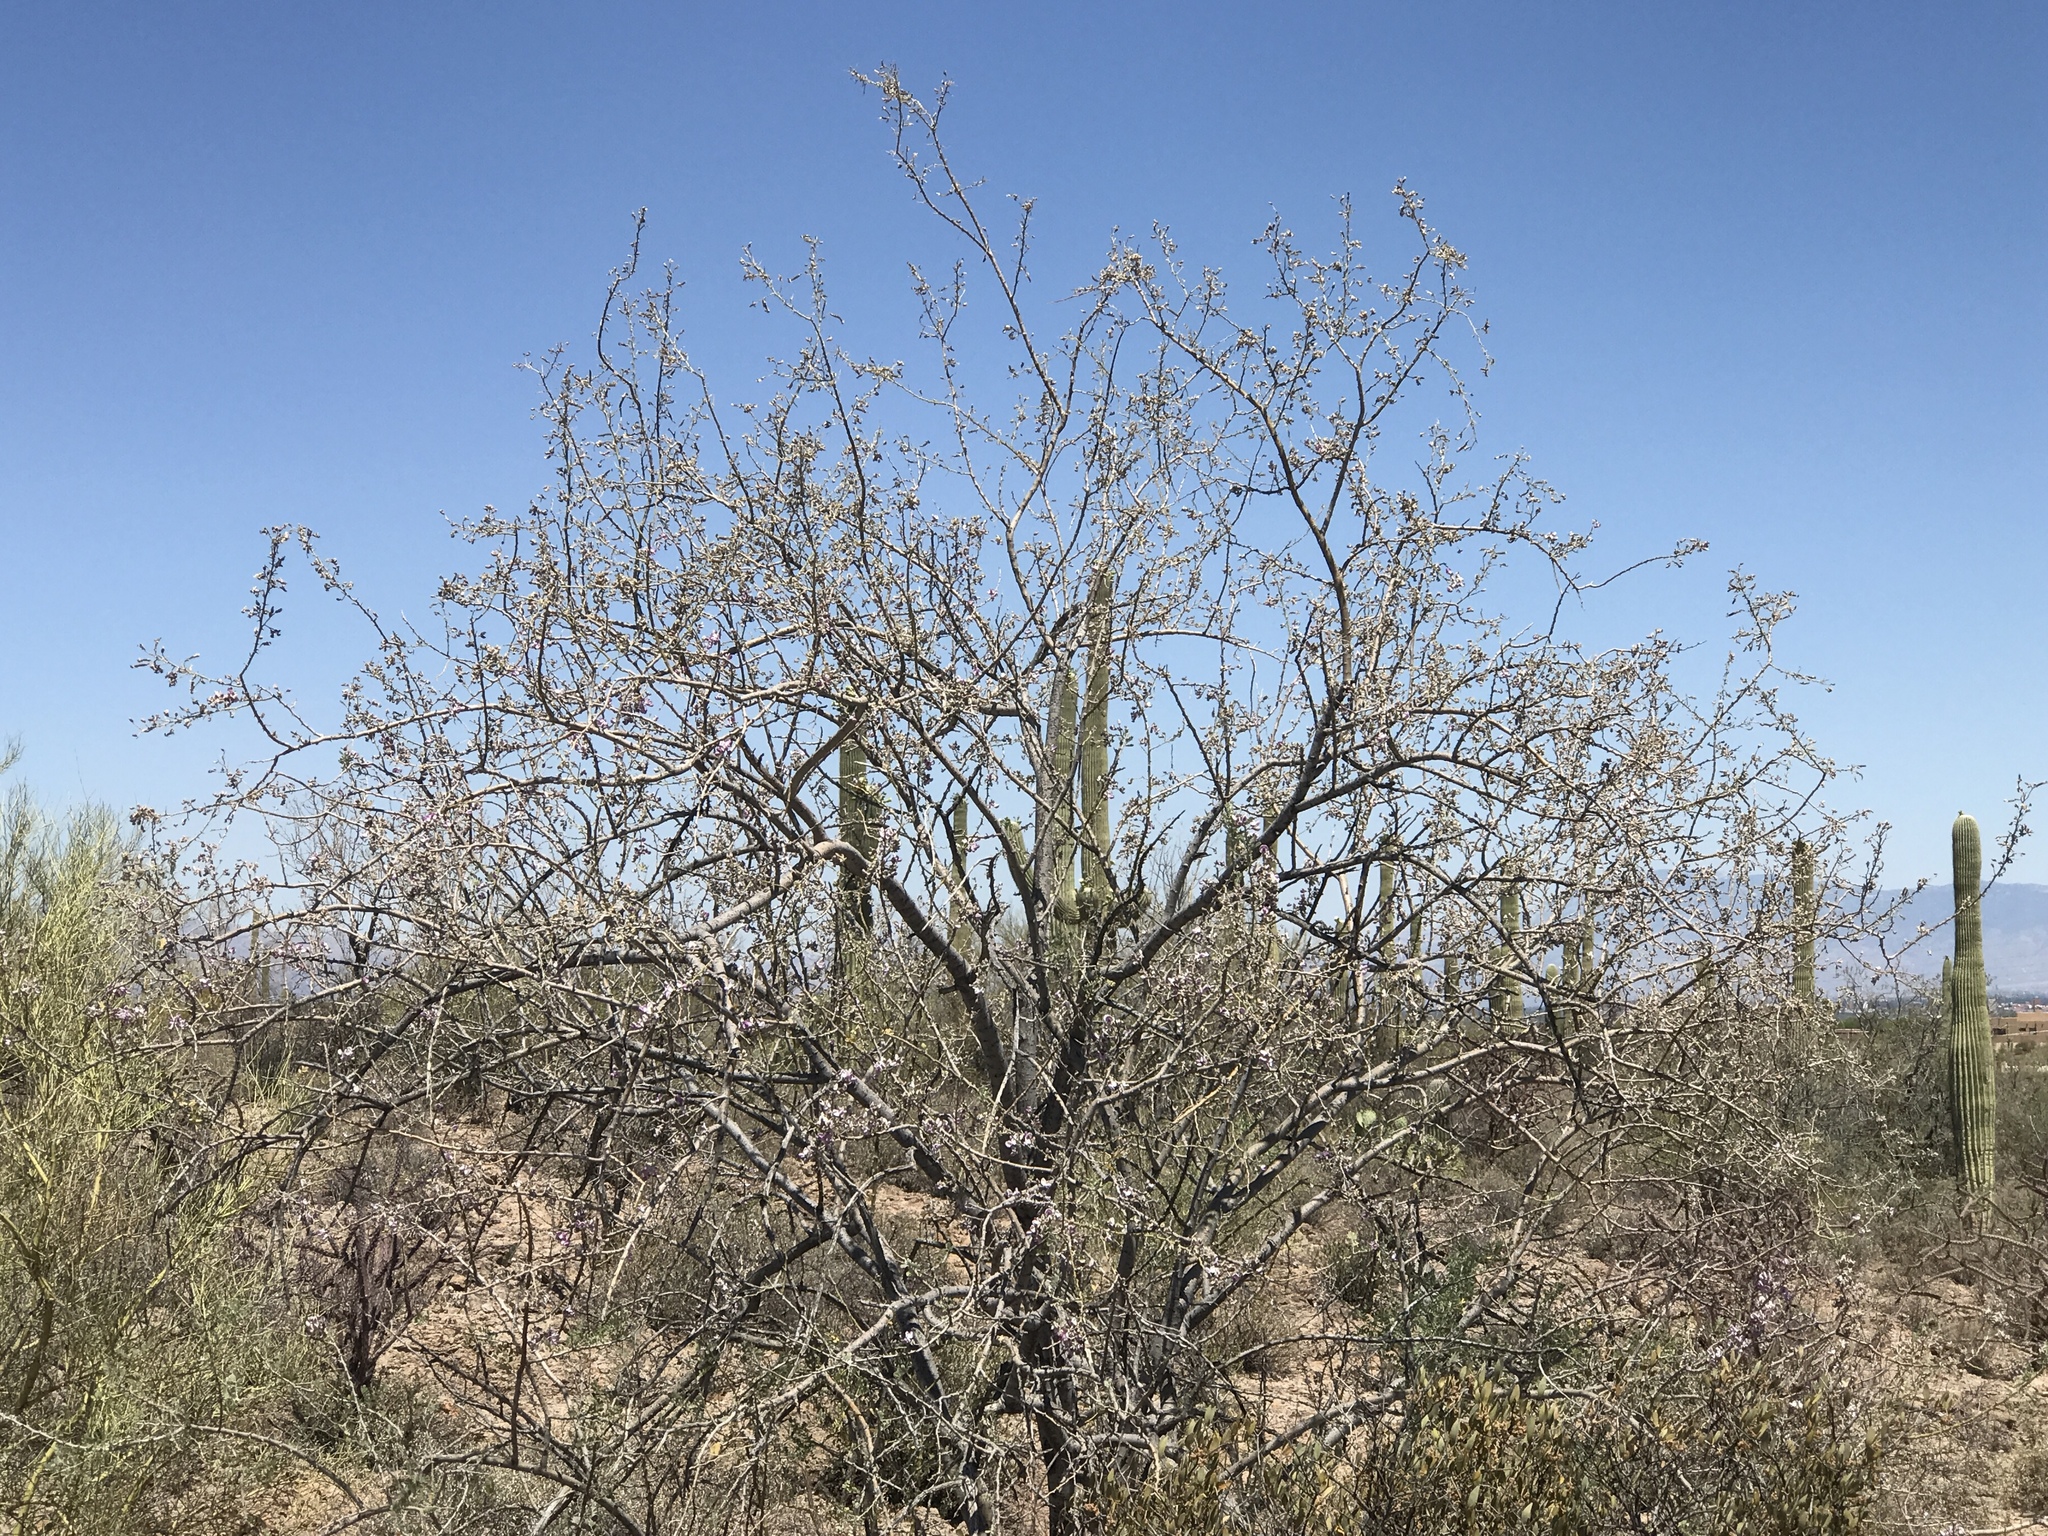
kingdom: Plantae
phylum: Tracheophyta
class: Magnoliopsida
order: Fabales
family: Fabaceae
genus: Olneya
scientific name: Olneya tesota
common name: Desert ironwood
